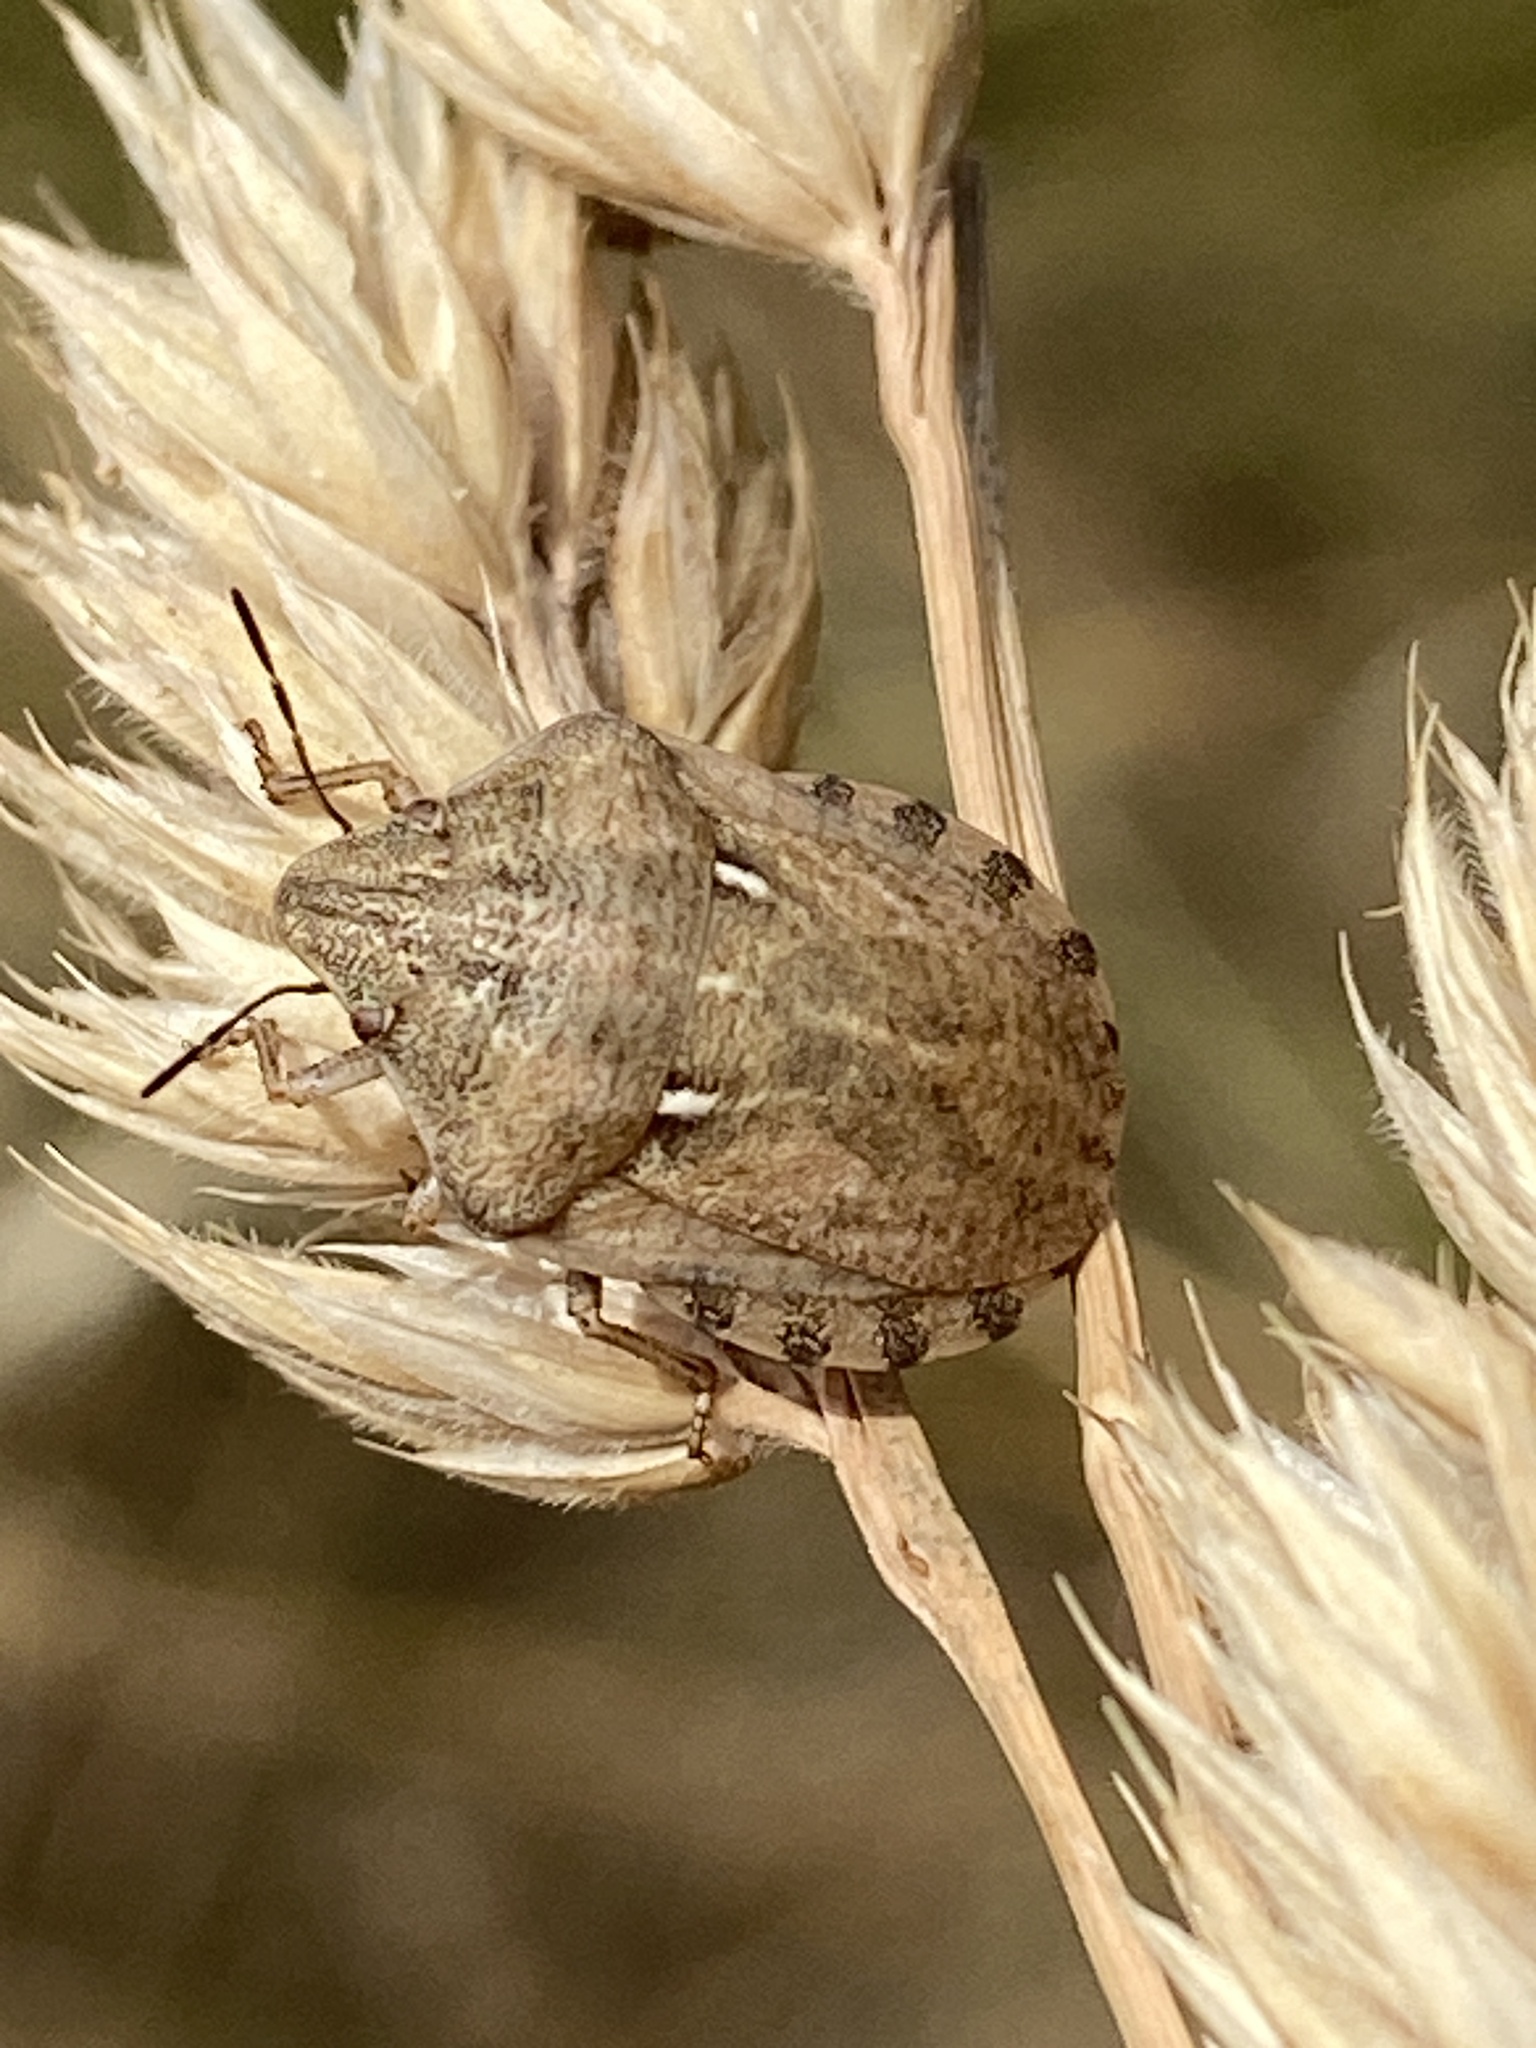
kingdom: Animalia
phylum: Arthropoda
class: Insecta
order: Hemiptera
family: Scutelleridae
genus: Eurygaster
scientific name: Eurygaster maura
